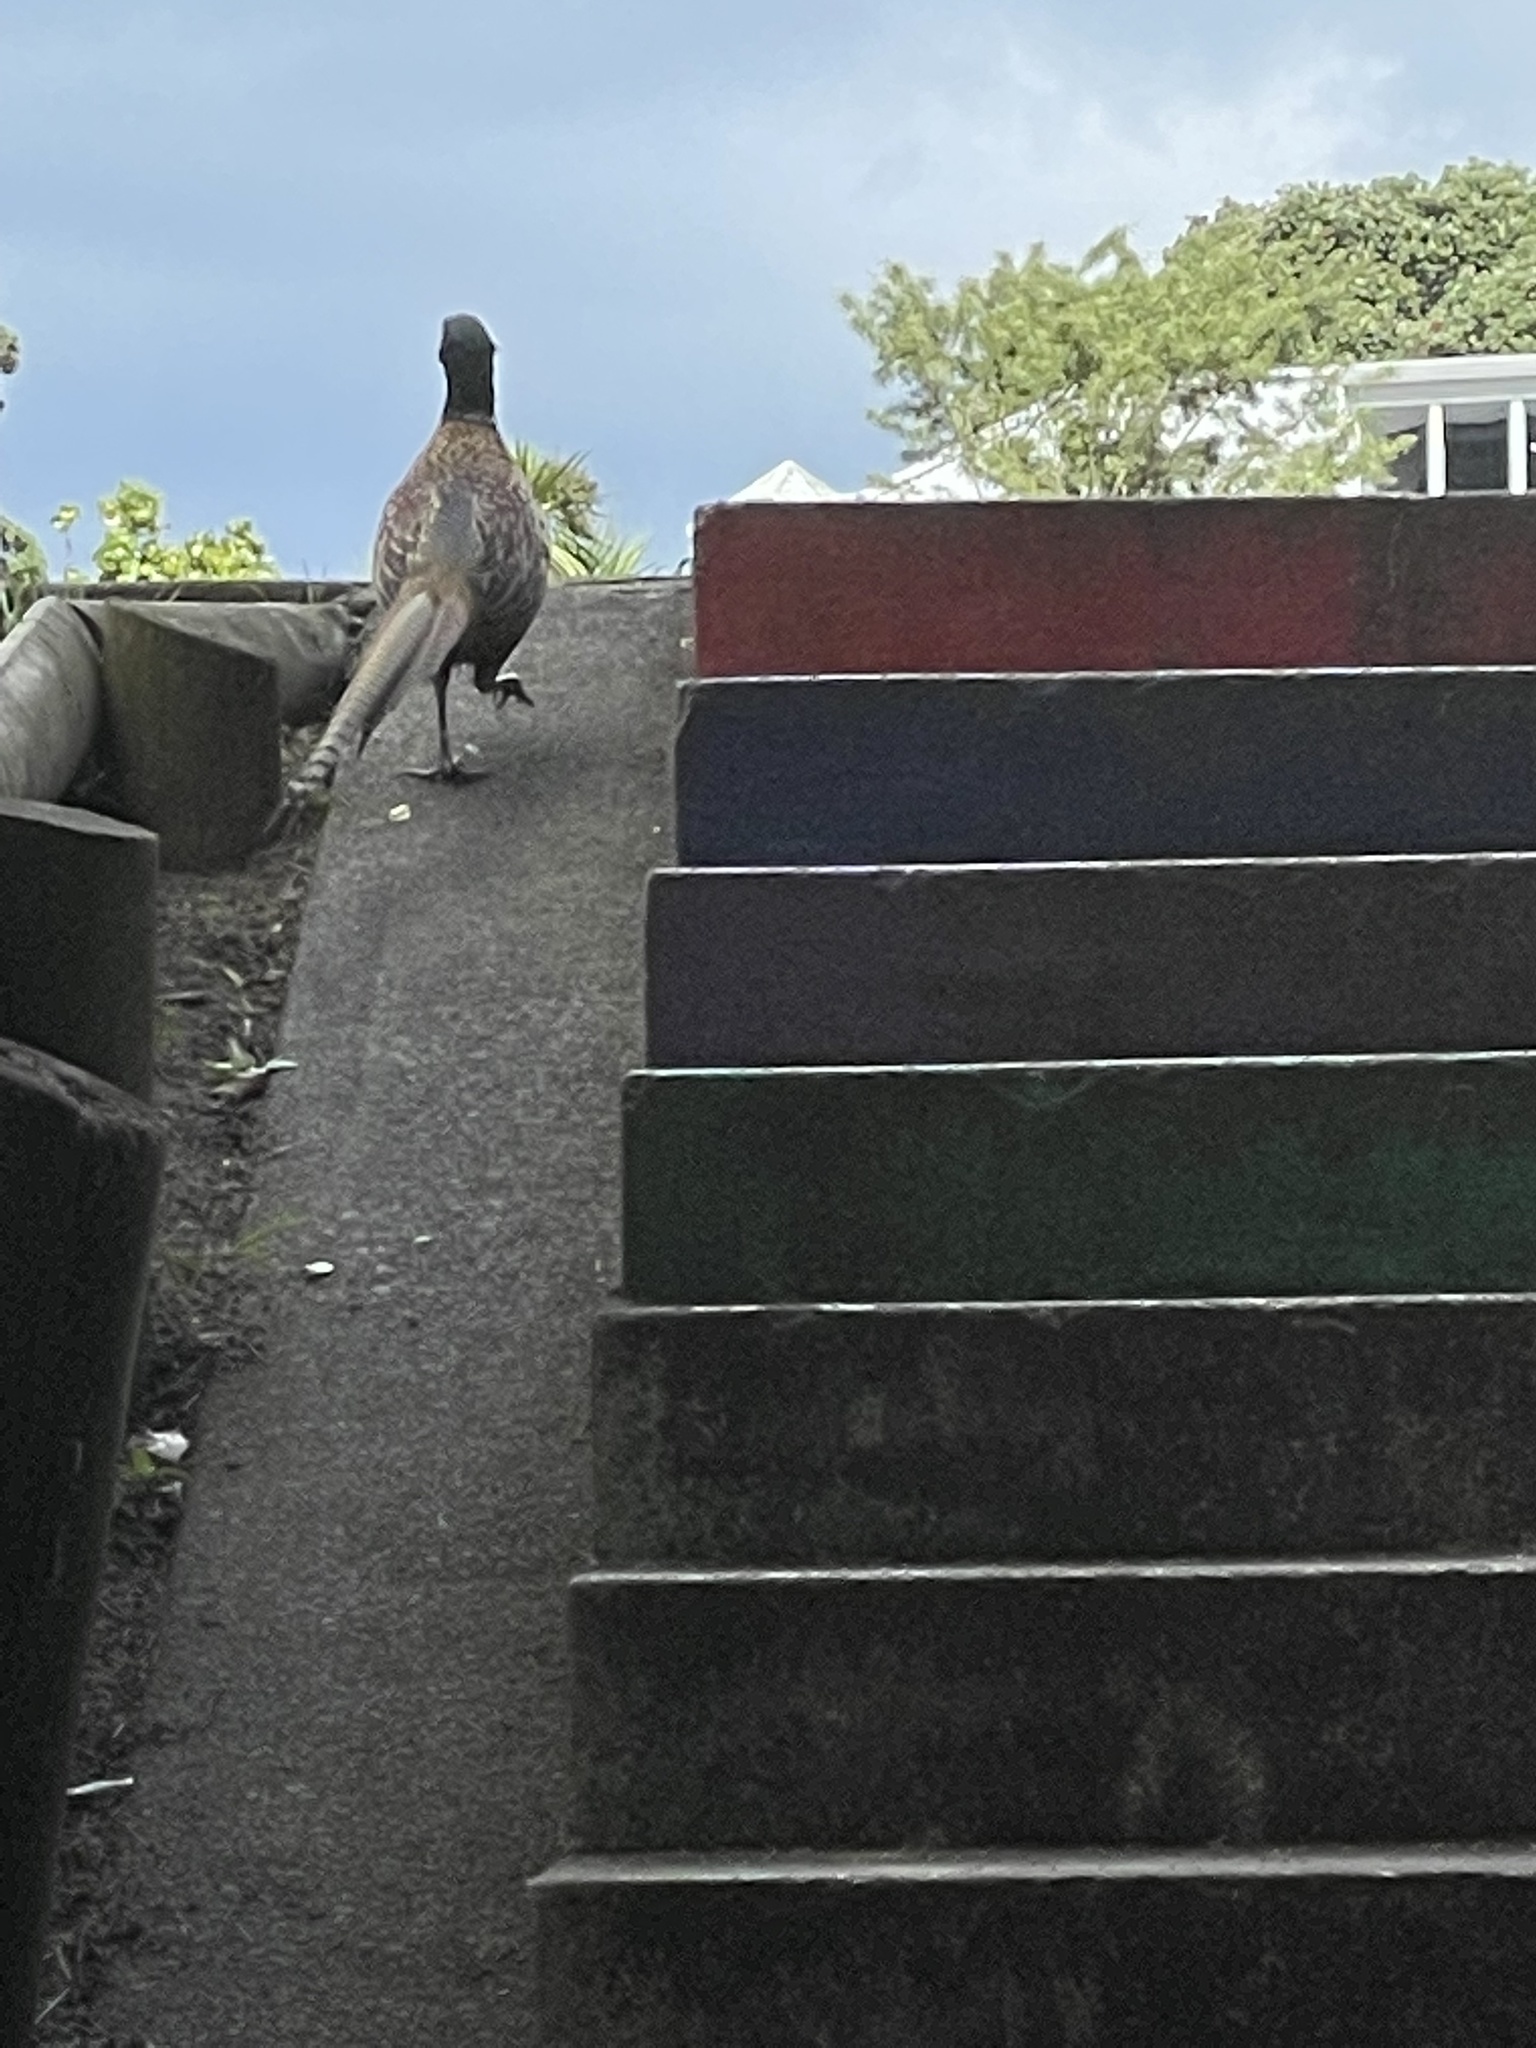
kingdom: Animalia
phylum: Chordata
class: Aves
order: Galliformes
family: Phasianidae
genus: Phasianus
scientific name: Phasianus colchicus
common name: Common pheasant
